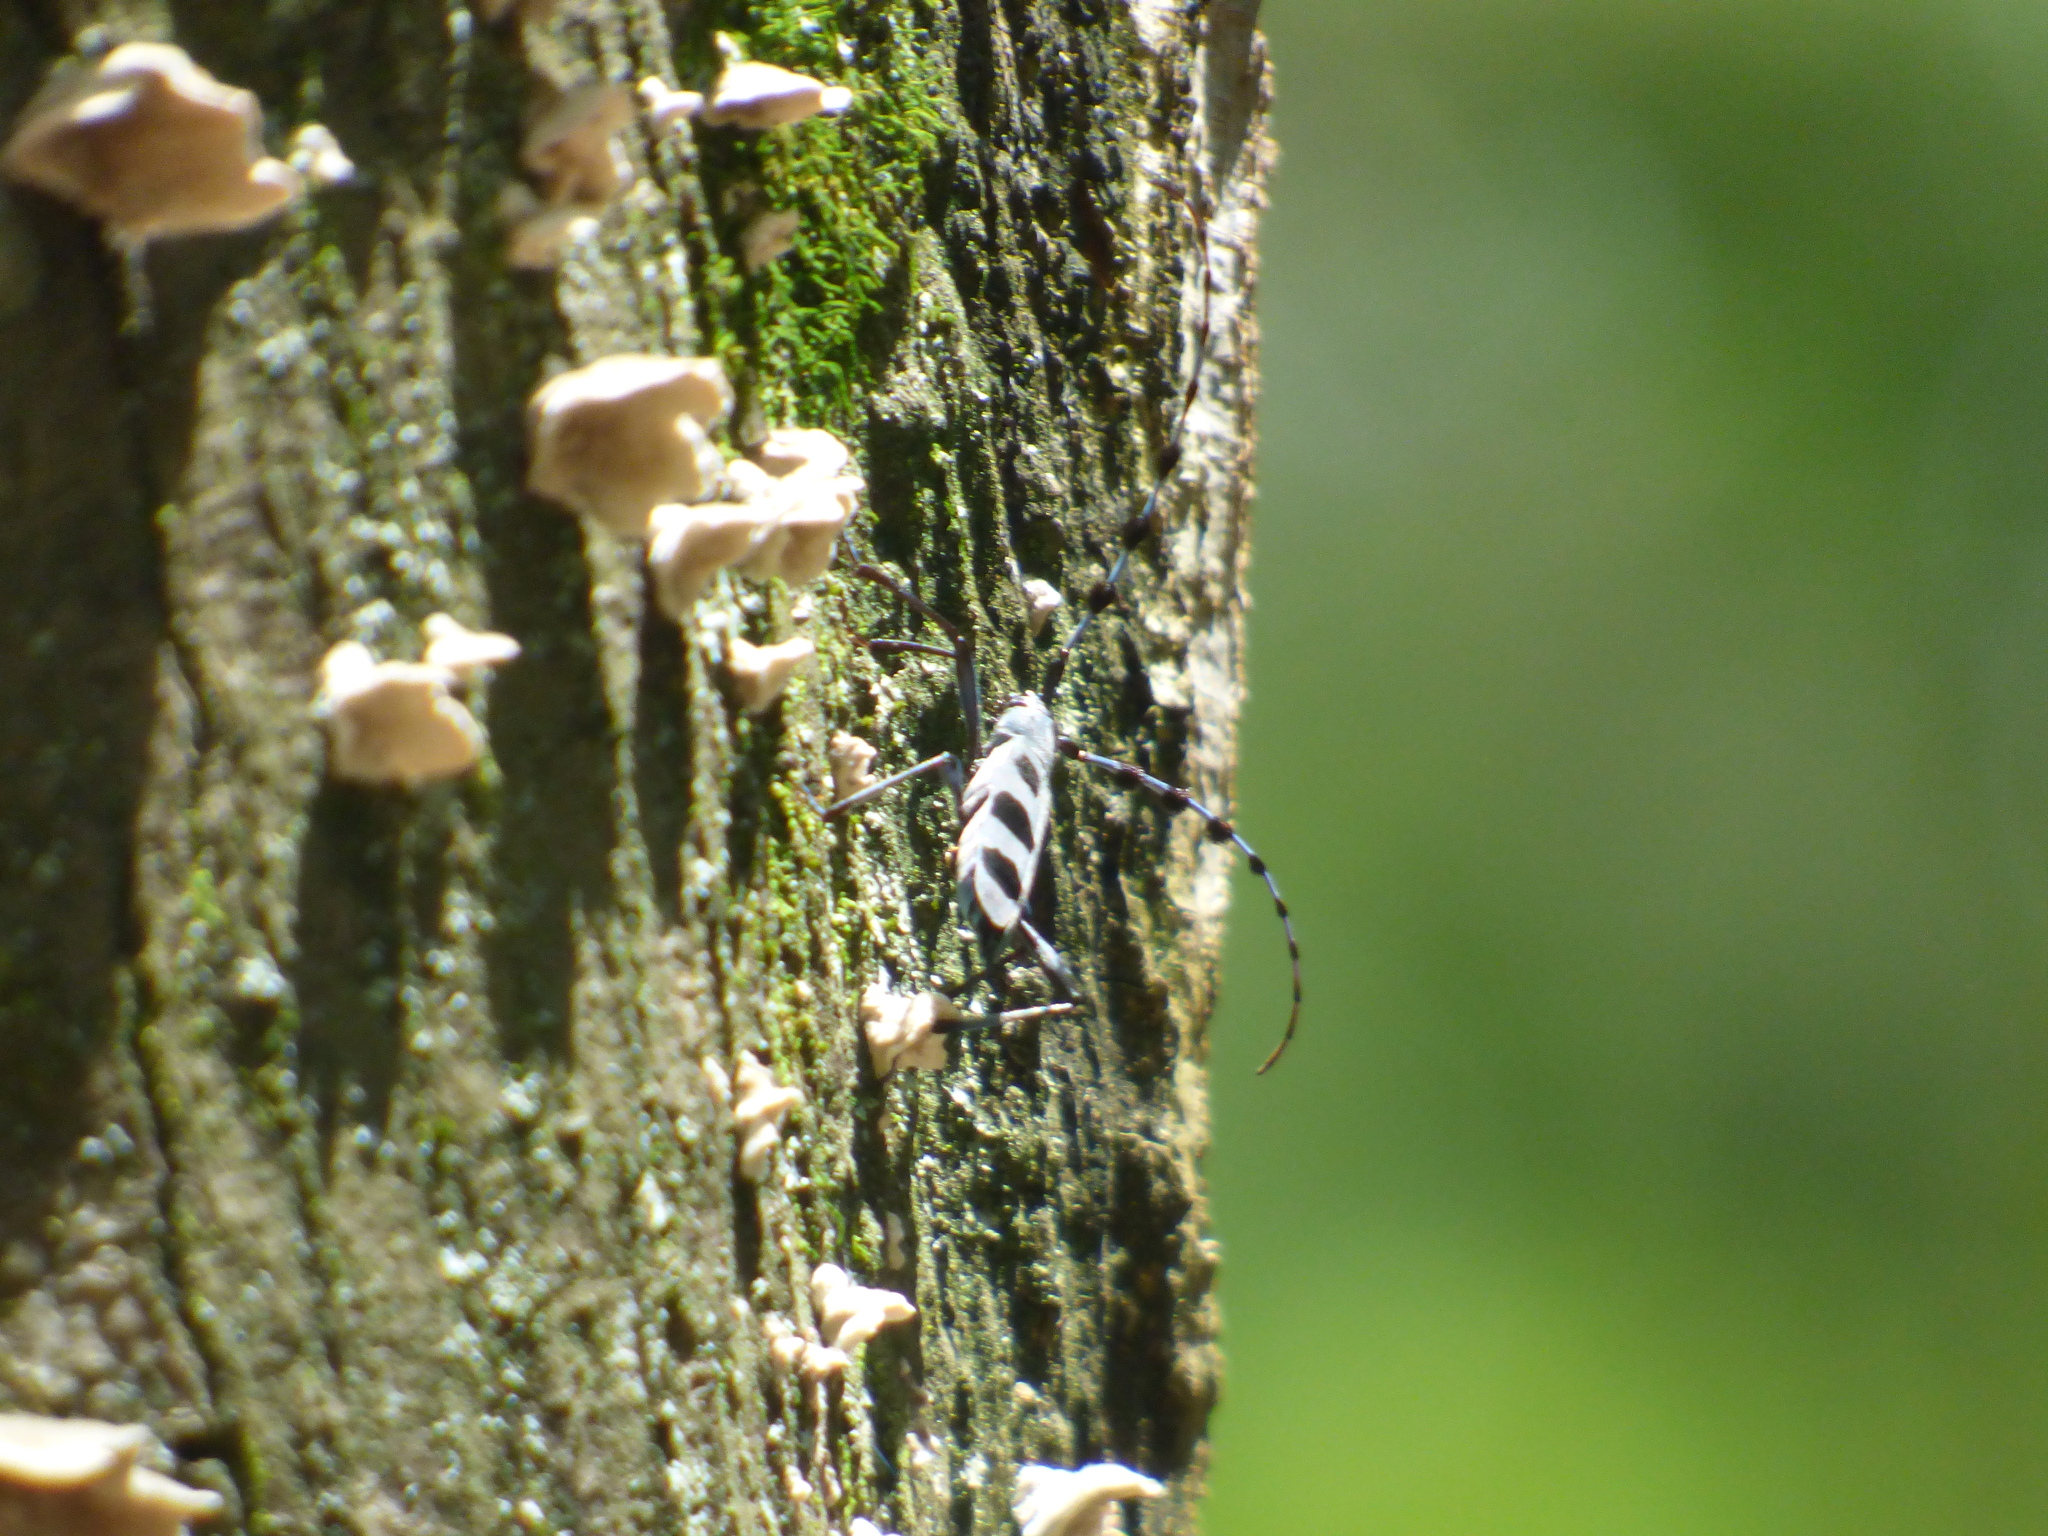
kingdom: Animalia
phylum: Arthropoda
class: Insecta
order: Coleoptera
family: Cerambycidae
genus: Rosalia
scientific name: Rosalia batesi
